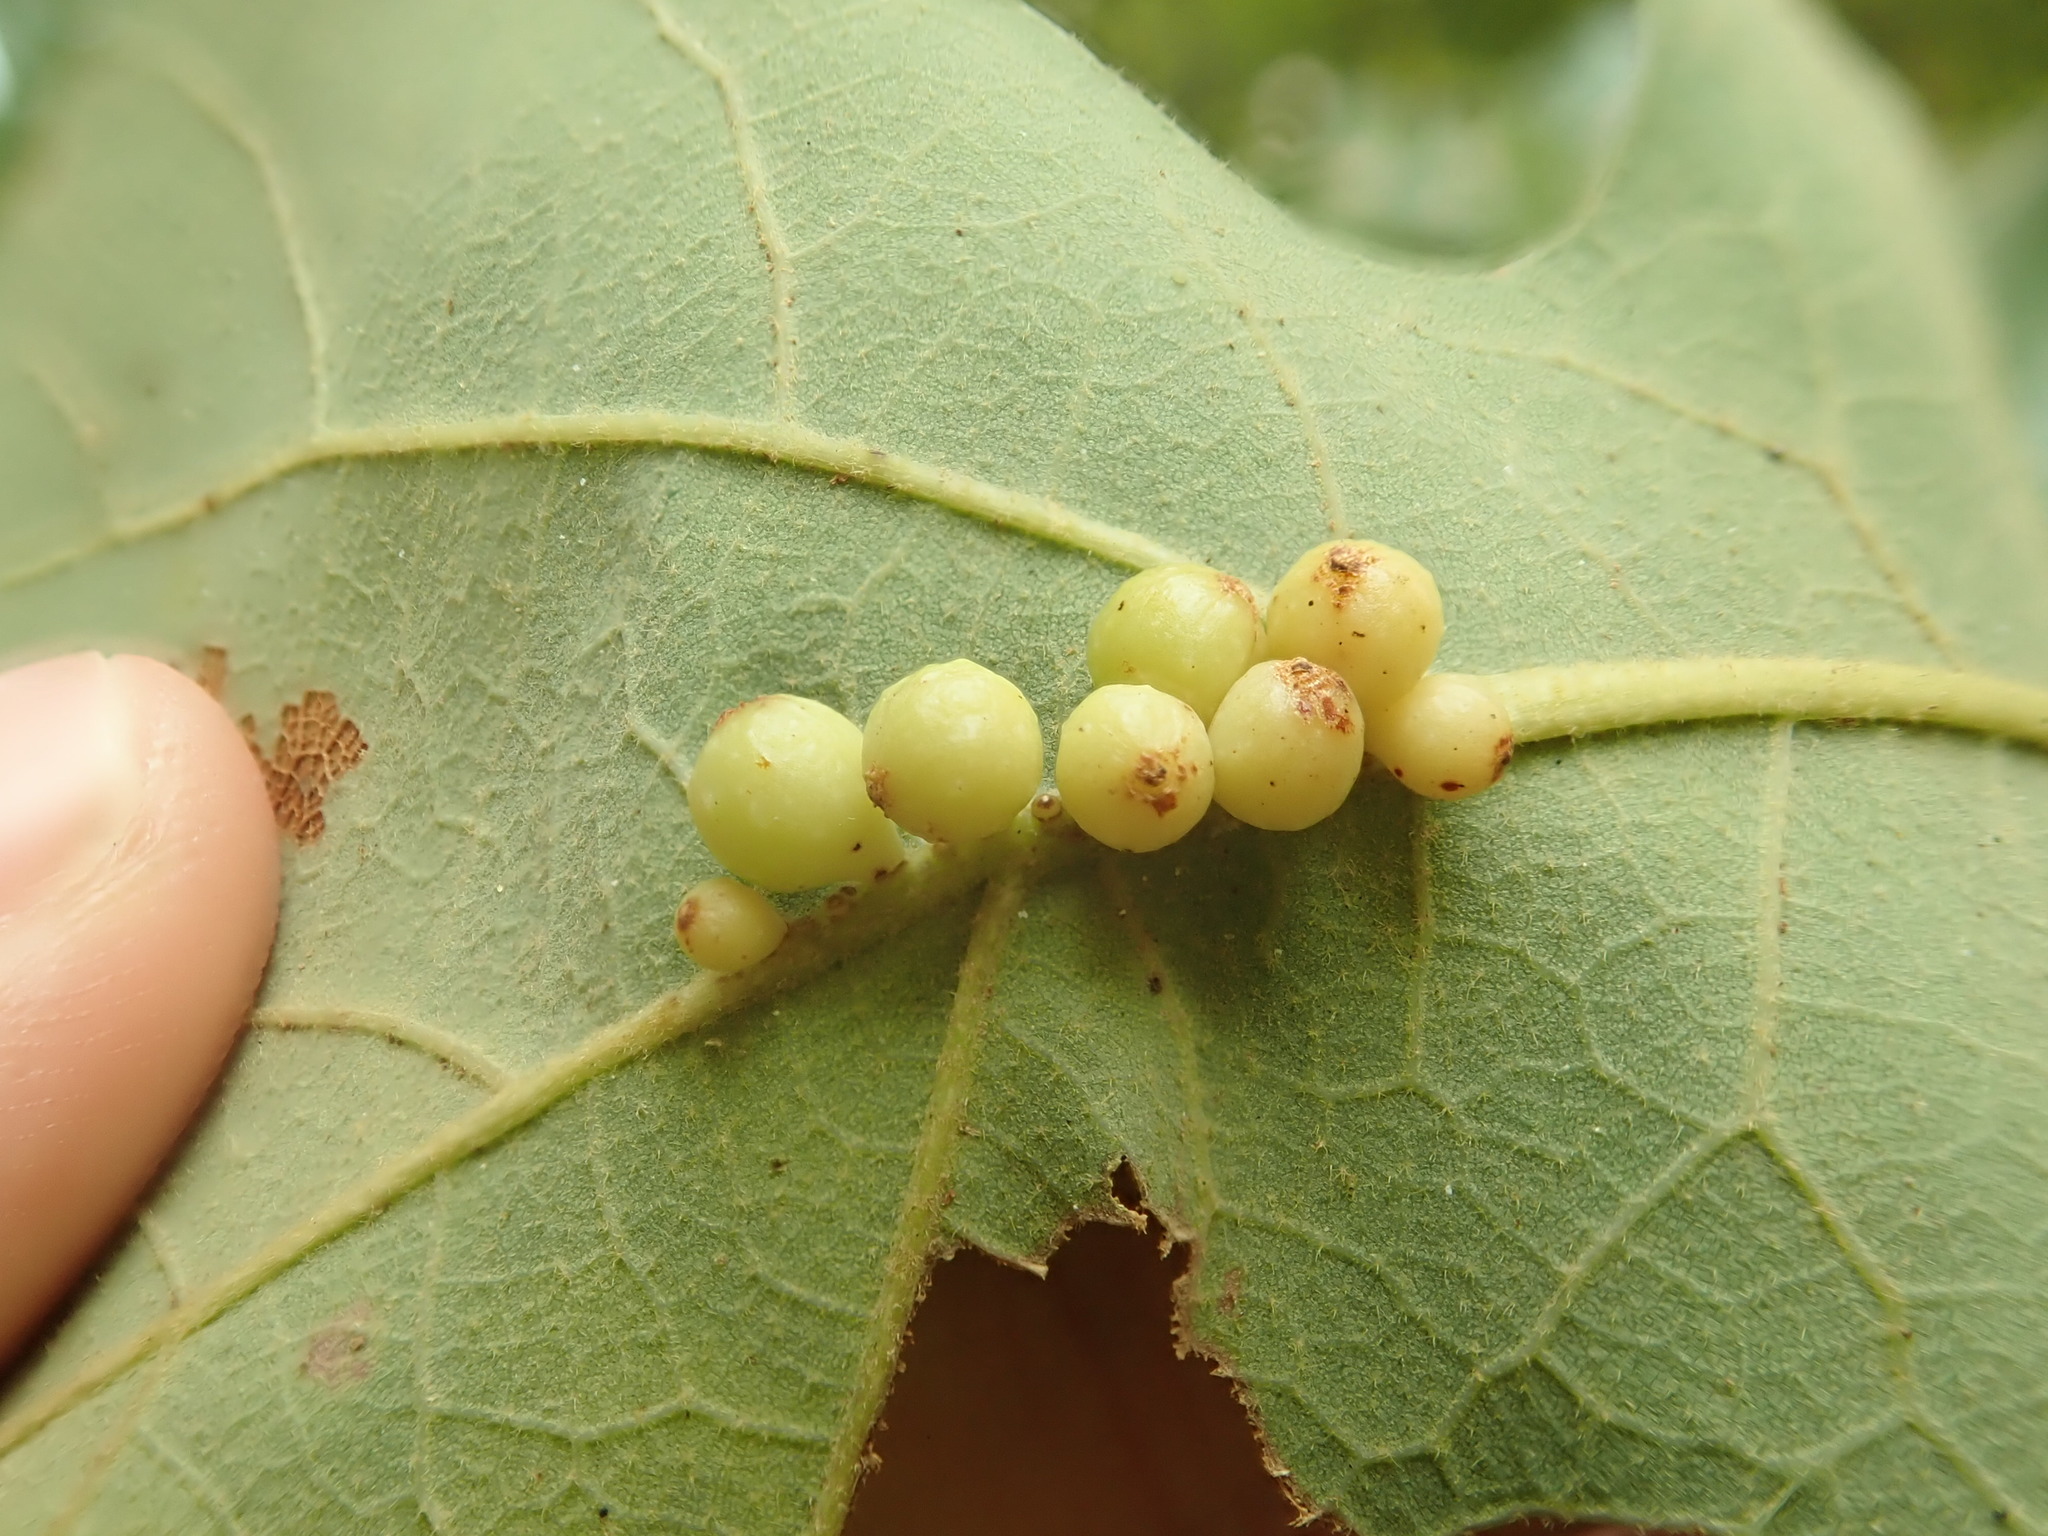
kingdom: Animalia
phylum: Arthropoda
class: Insecta
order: Hymenoptera
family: Cynipidae
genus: Andricus
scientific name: Andricus
